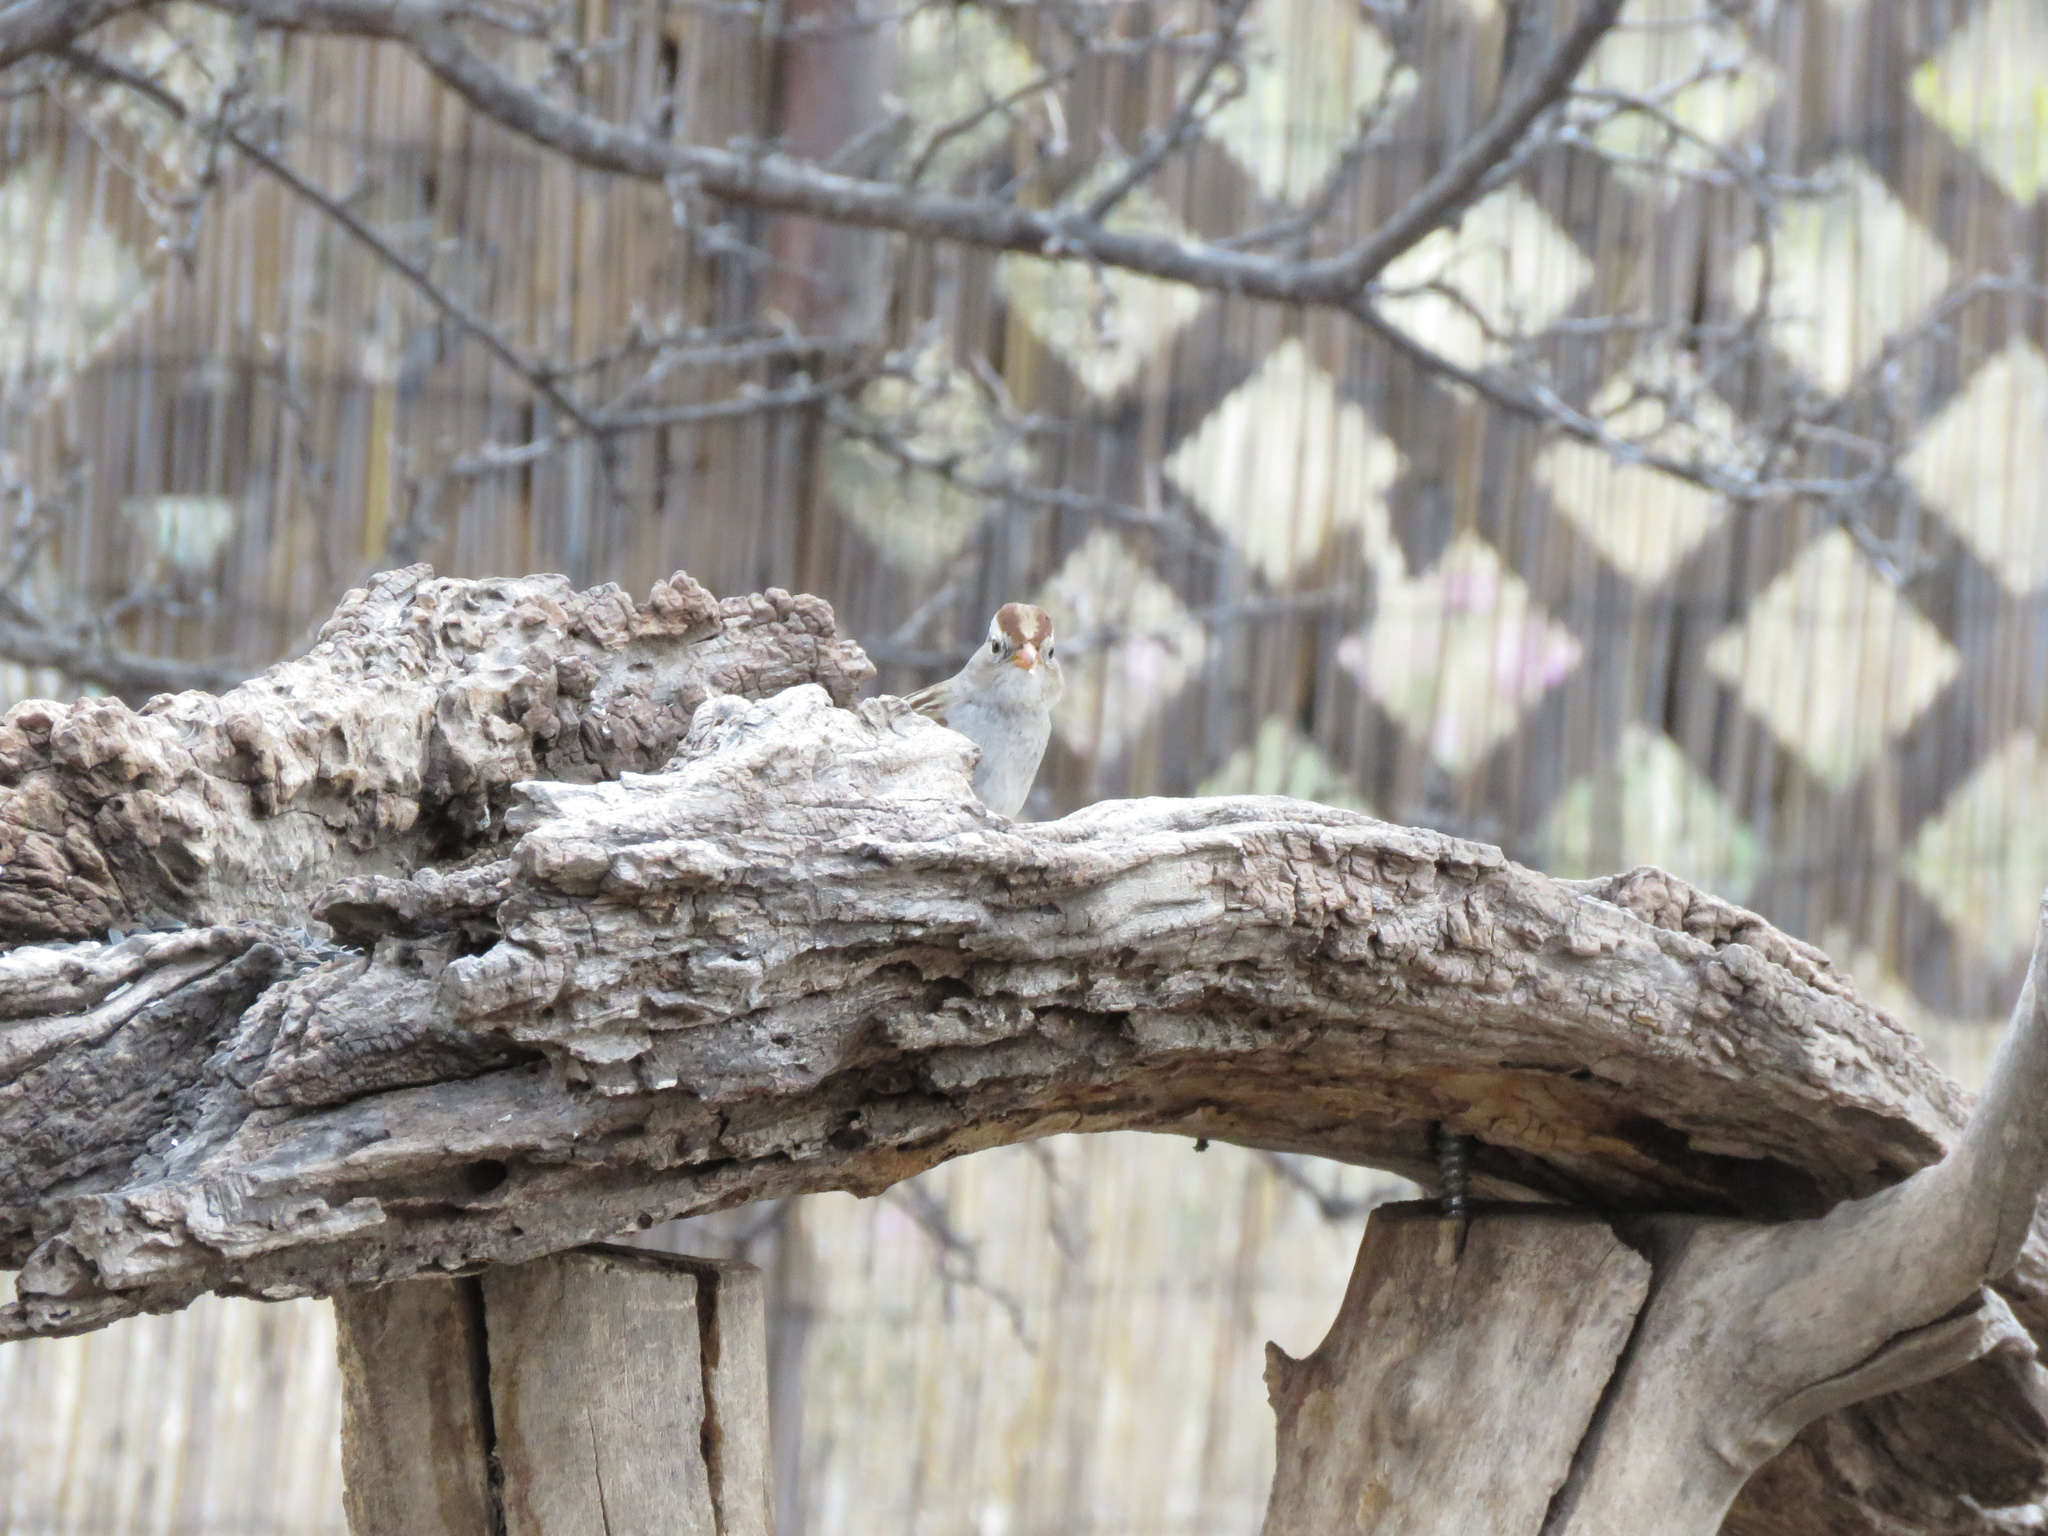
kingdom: Animalia
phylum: Chordata
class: Aves
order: Passeriformes
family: Passerellidae
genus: Zonotrichia
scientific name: Zonotrichia leucophrys
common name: White-crowned sparrow
